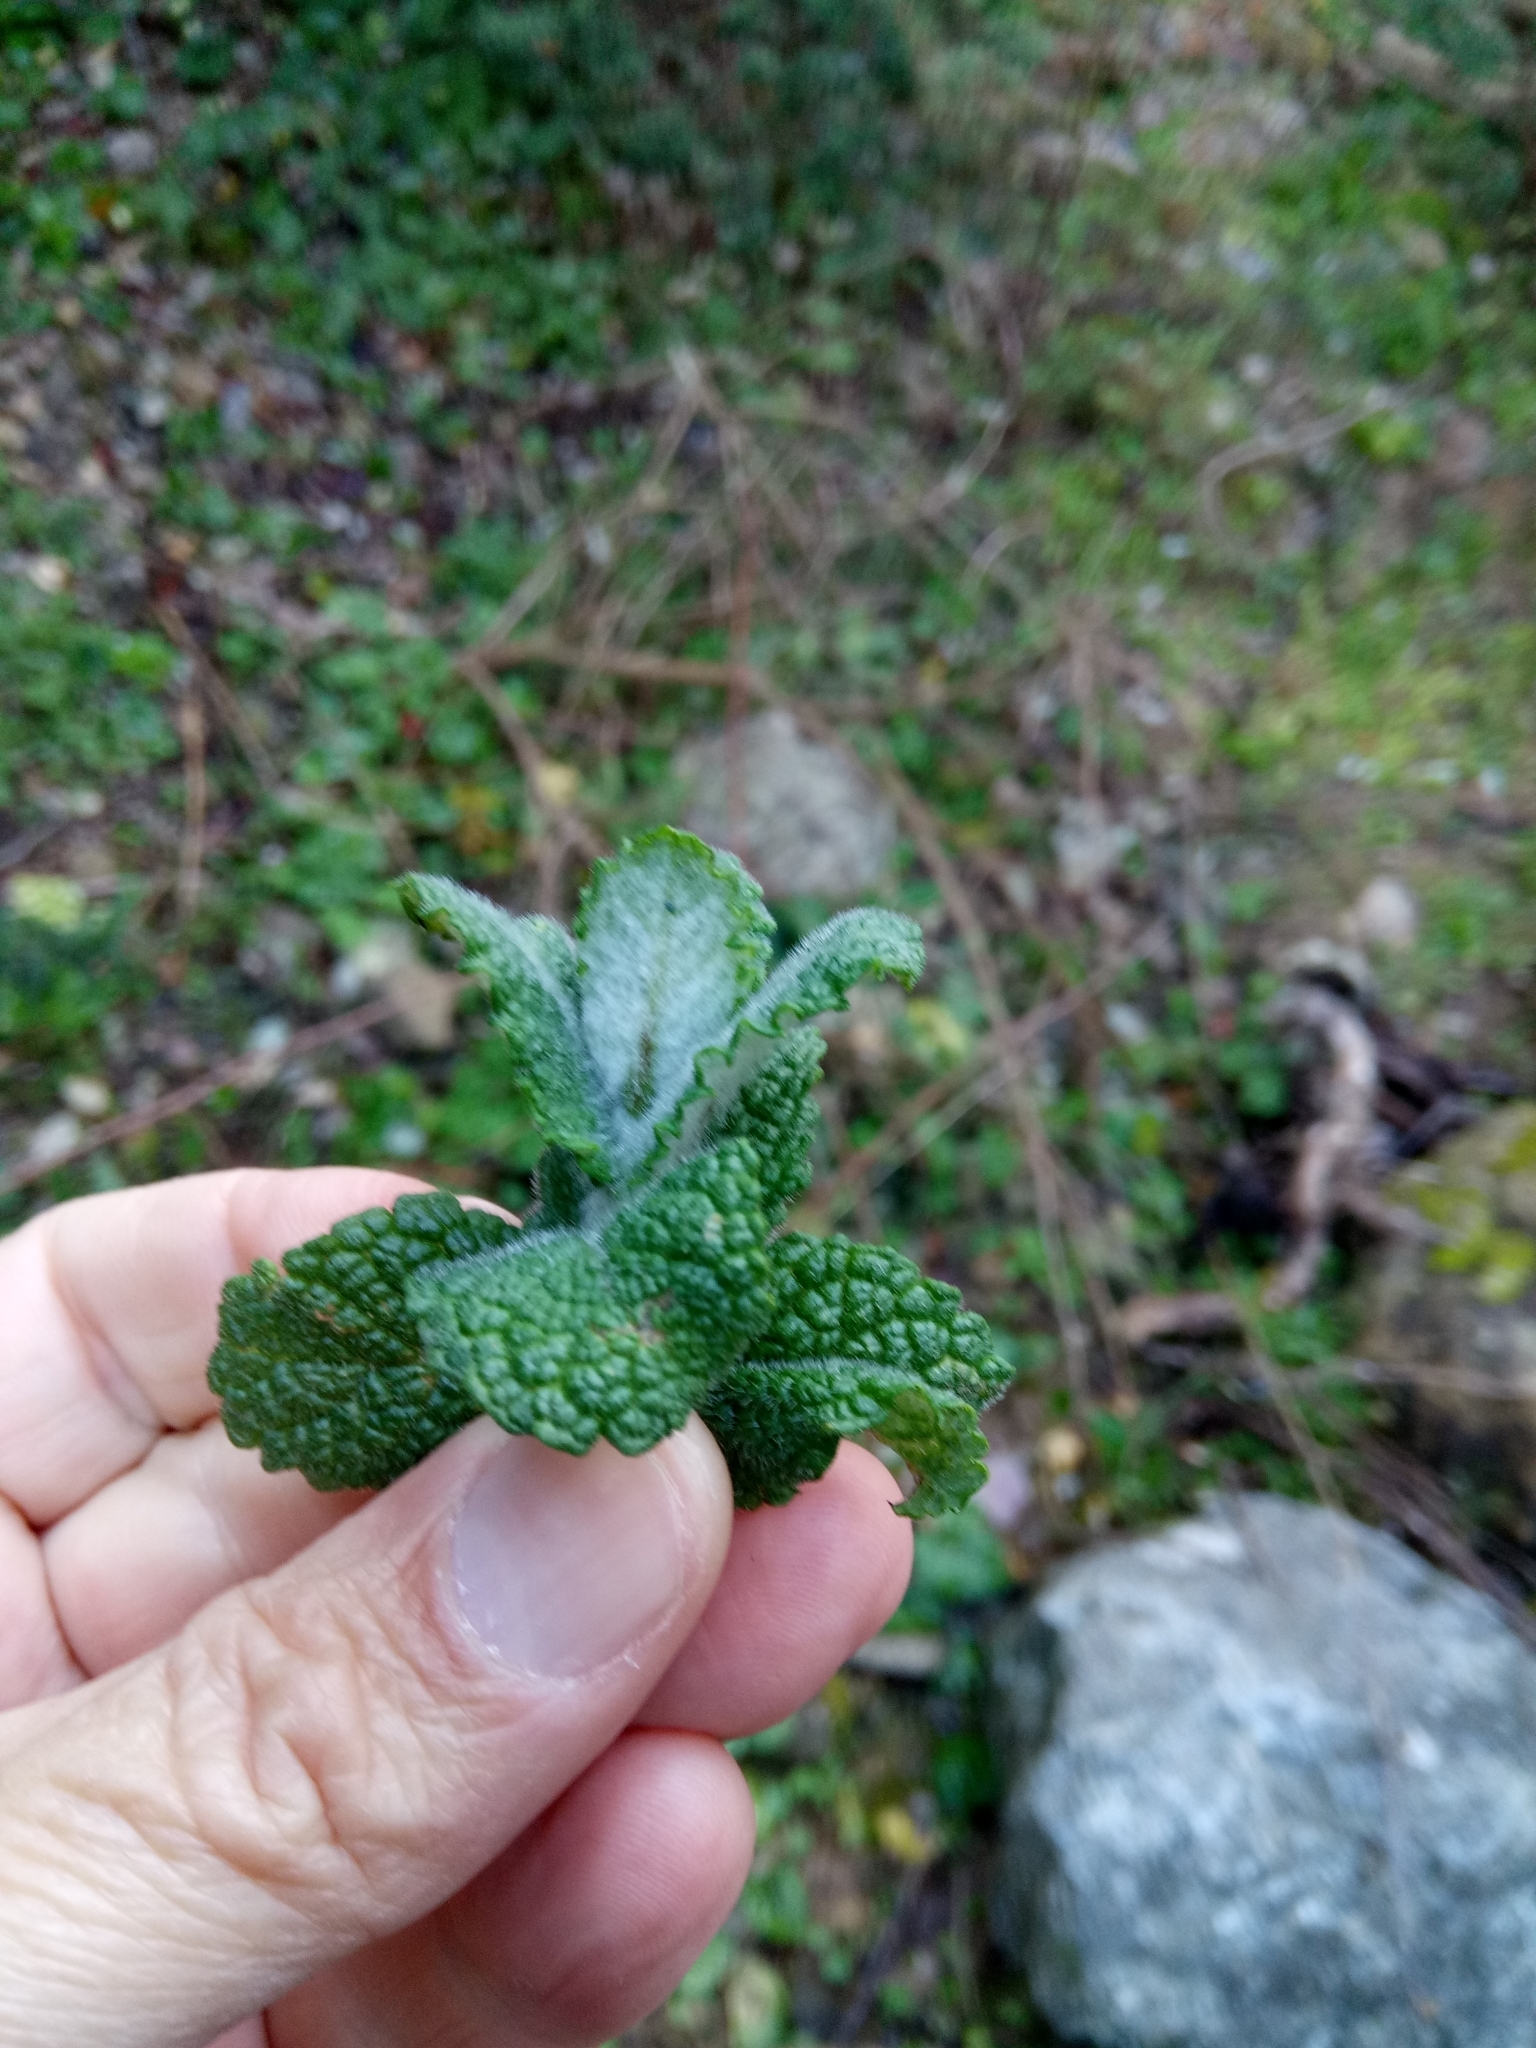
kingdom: Plantae
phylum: Tracheophyta
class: Magnoliopsida
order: Lamiales
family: Lamiaceae
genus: Mentha
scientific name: Mentha suaveolens
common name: Apple mint
